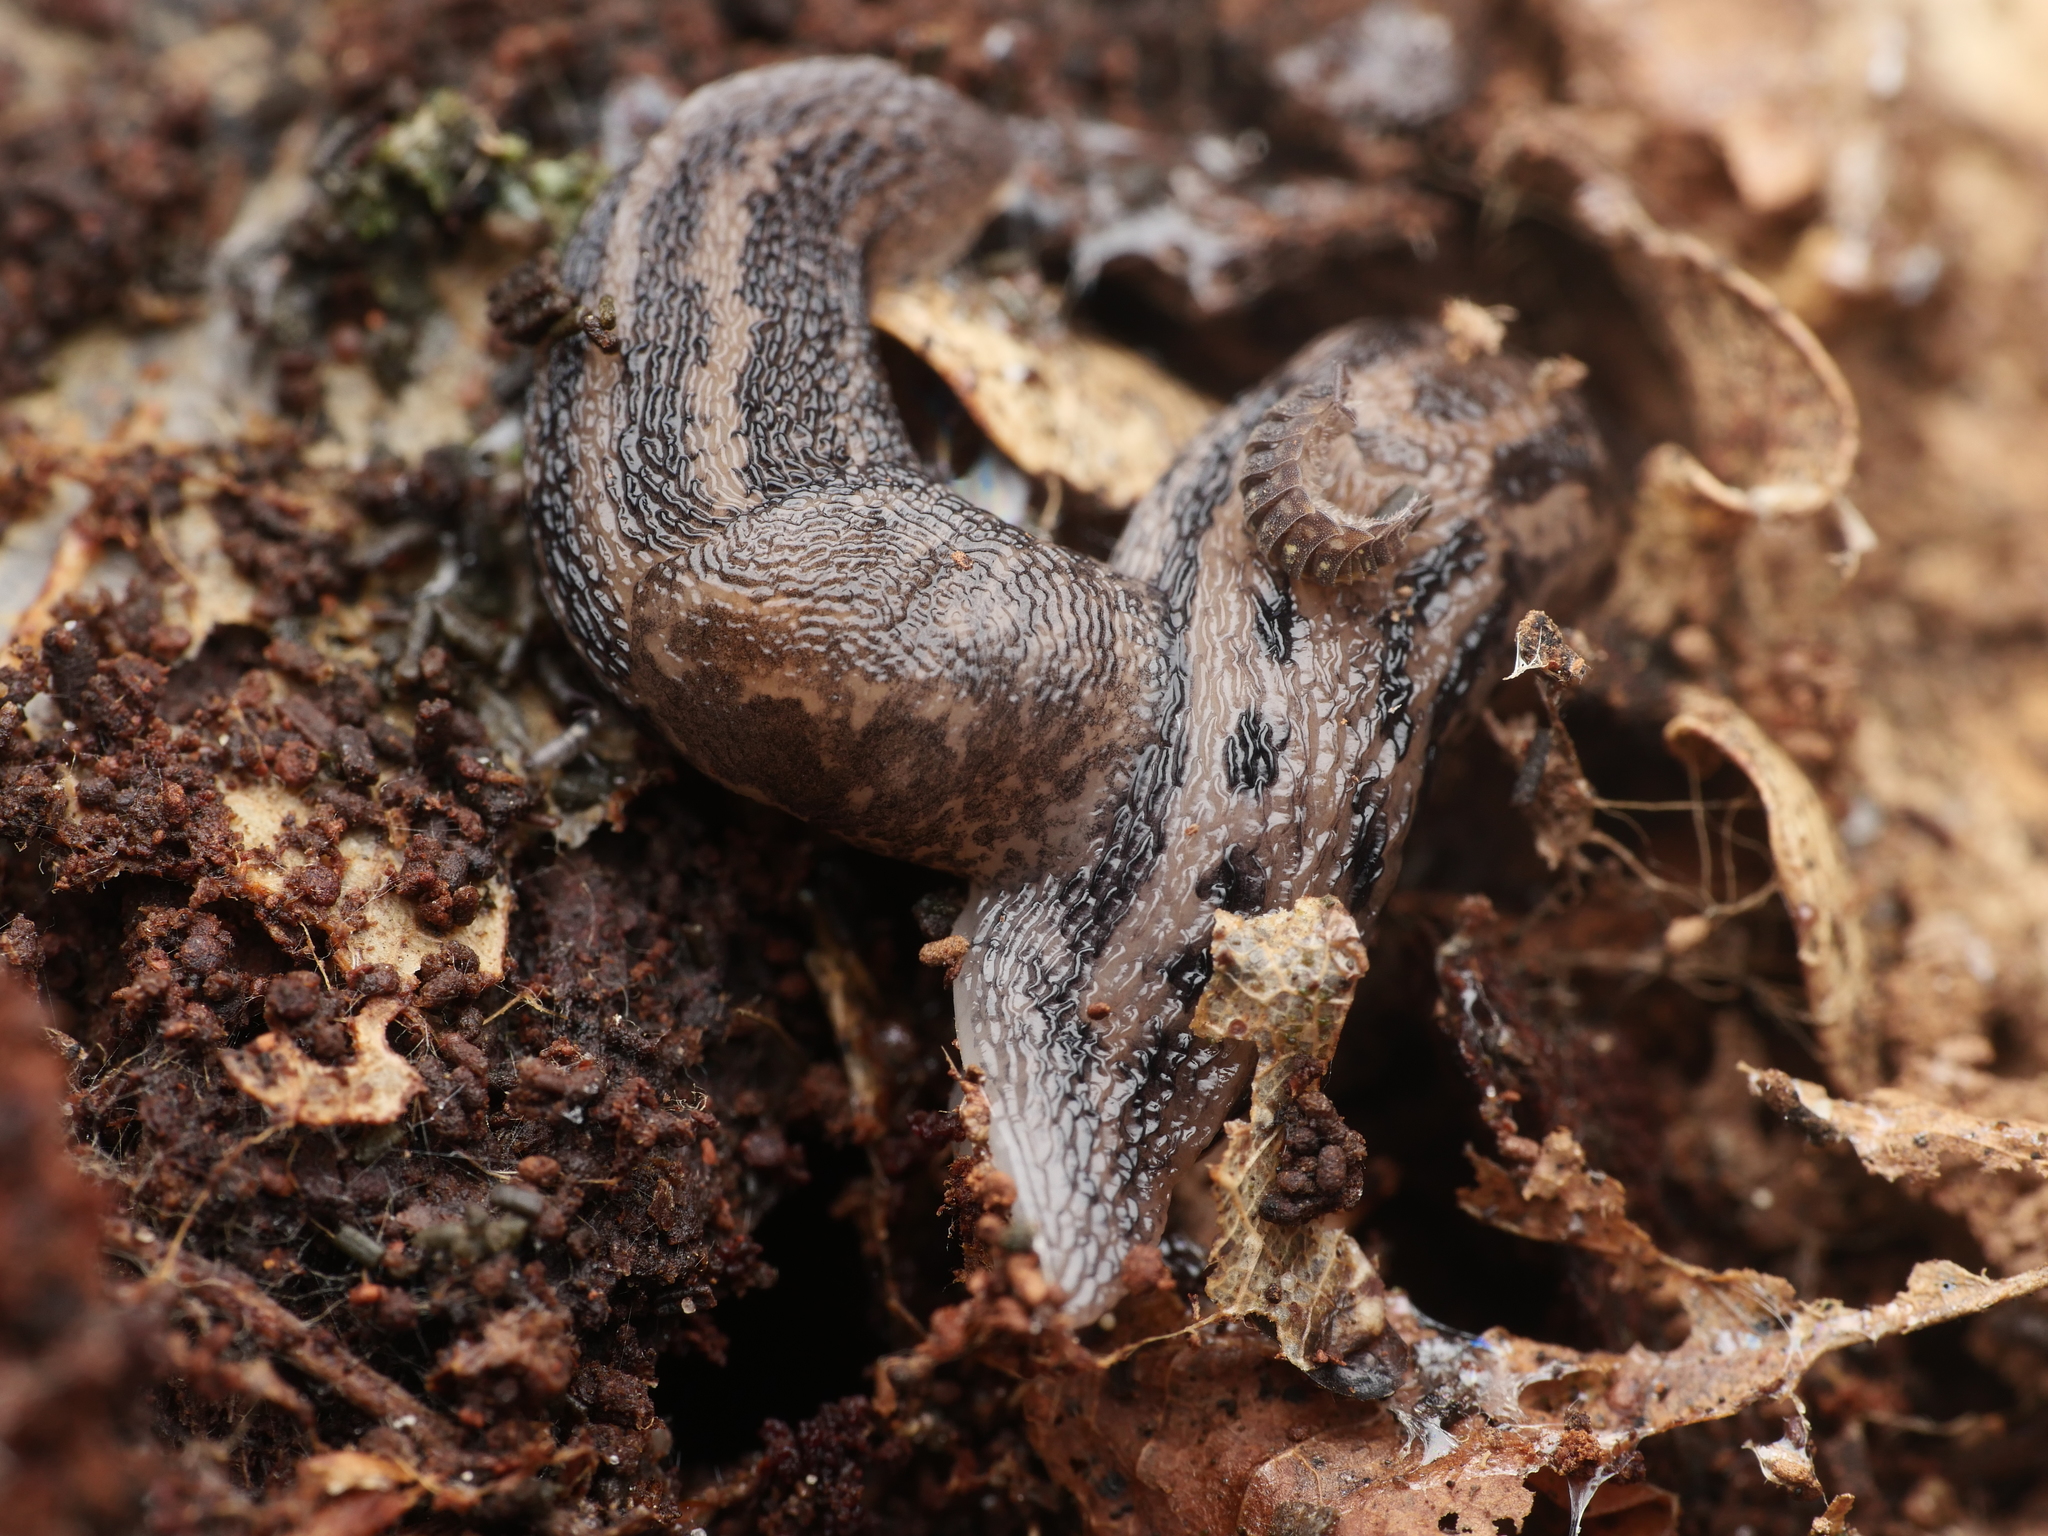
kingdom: Animalia
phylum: Mollusca
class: Gastropoda
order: Stylommatophora
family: Limacidae
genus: Limax
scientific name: Limax maximus
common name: Great grey slug
